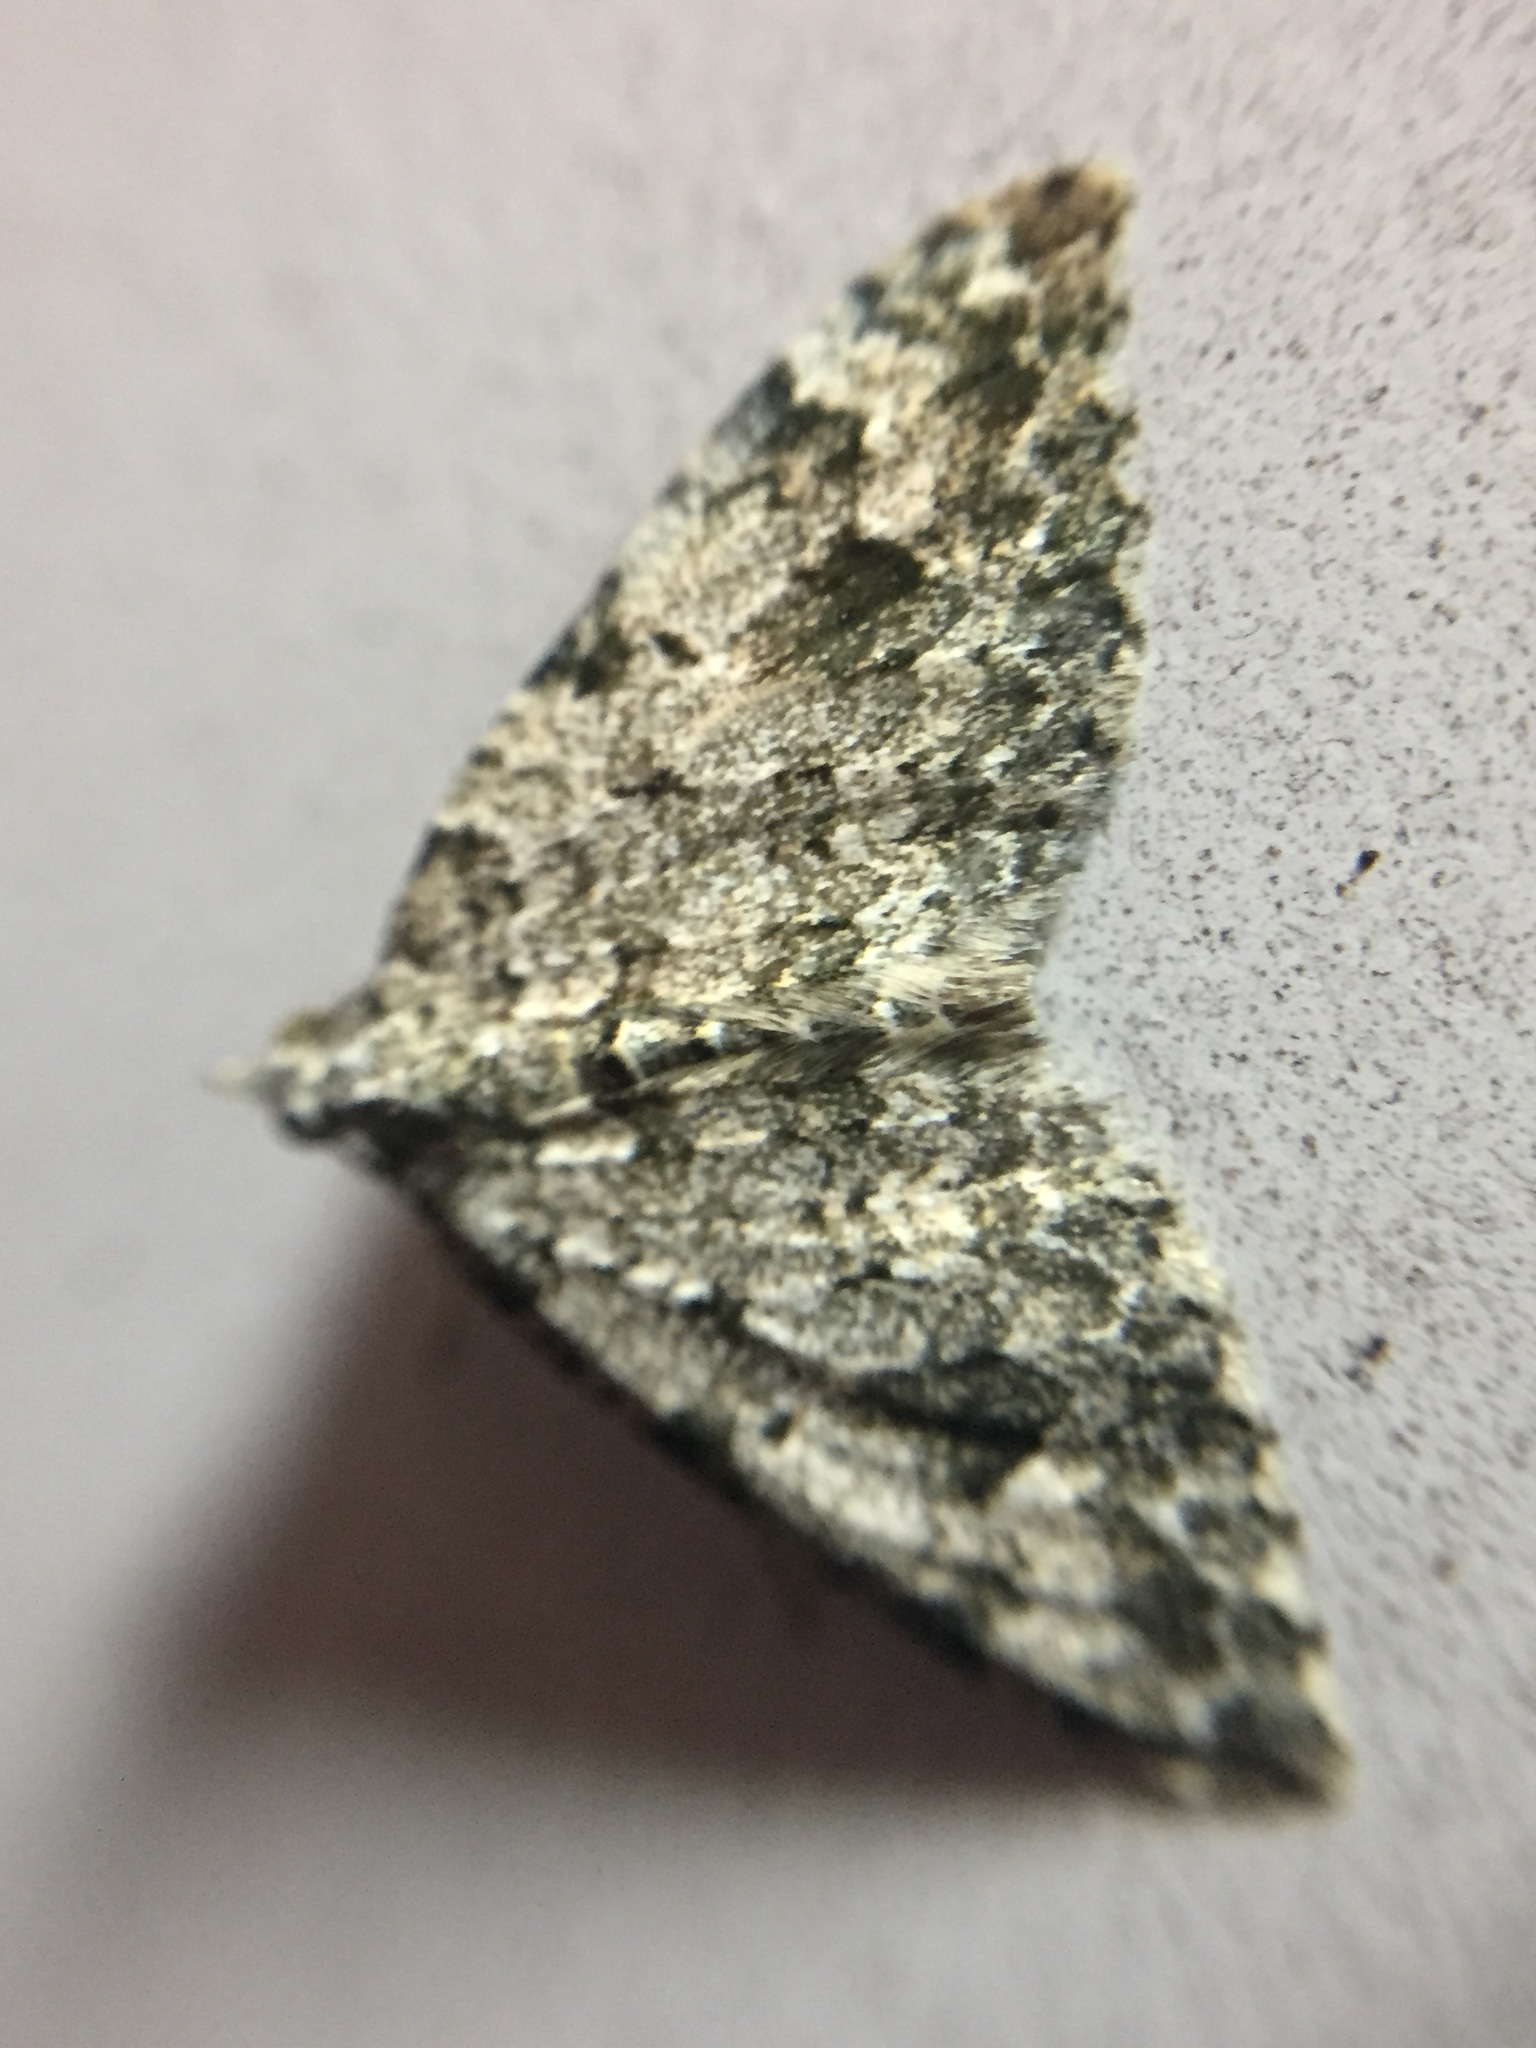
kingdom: Animalia
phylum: Arthropoda
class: Insecta
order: Lepidoptera
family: Geometridae
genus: Helastia
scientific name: Helastia cinerearia
